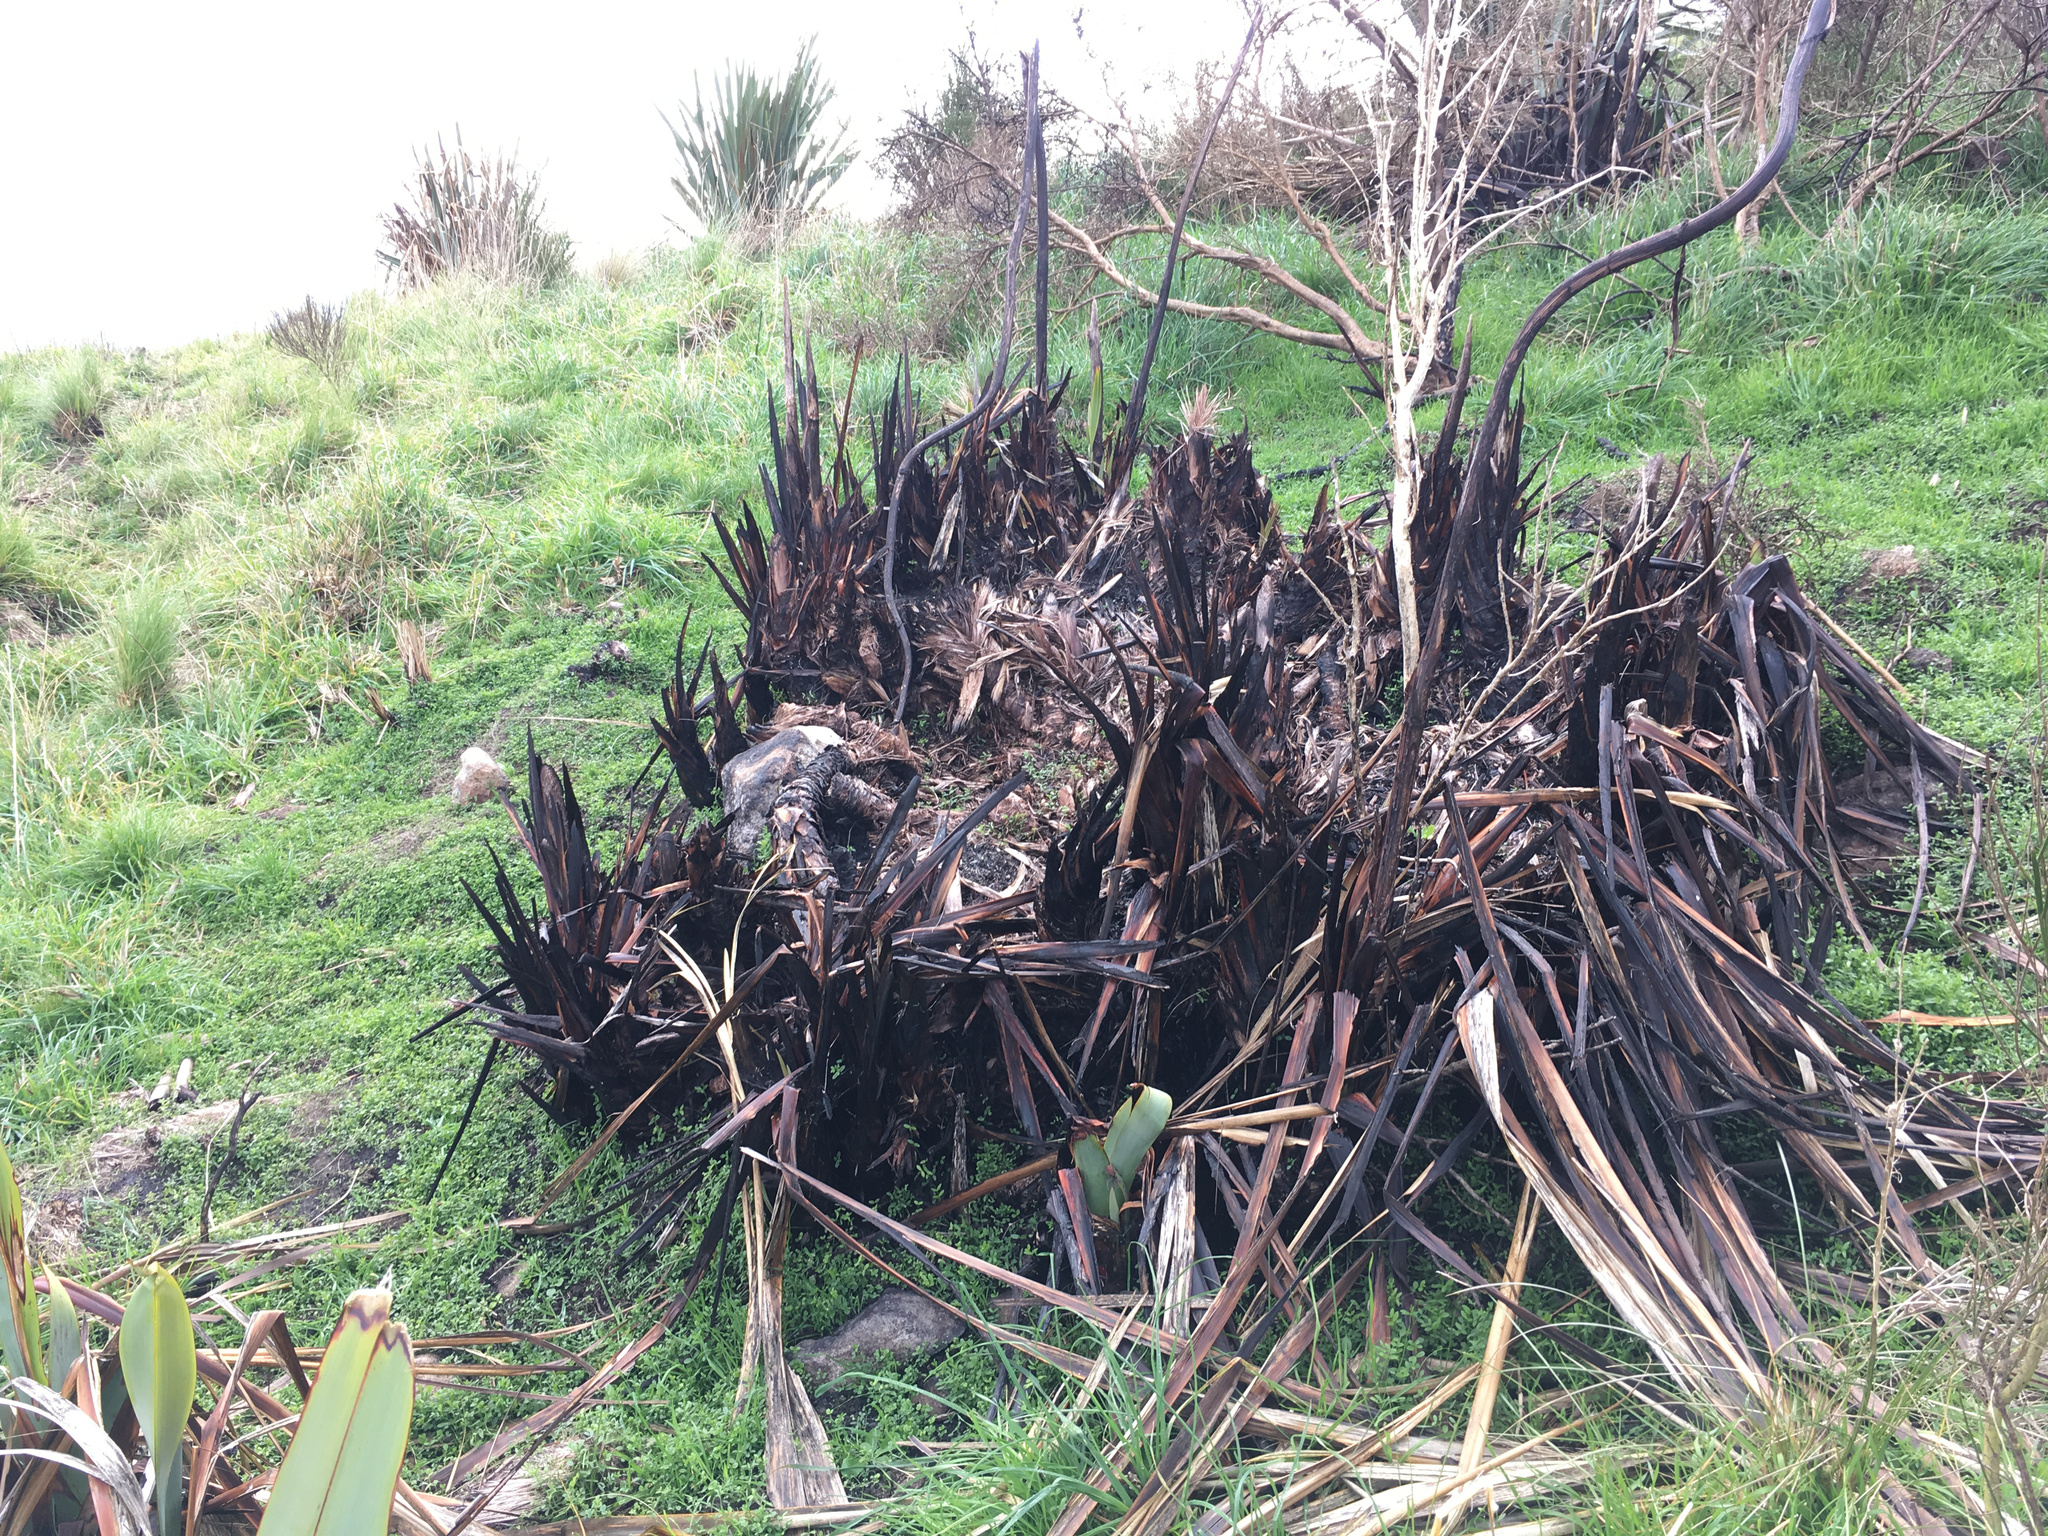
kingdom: Plantae
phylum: Tracheophyta
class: Liliopsida
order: Asparagales
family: Asphodelaceae
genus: Phormium
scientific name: Phormium tenax
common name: New zealand flax
